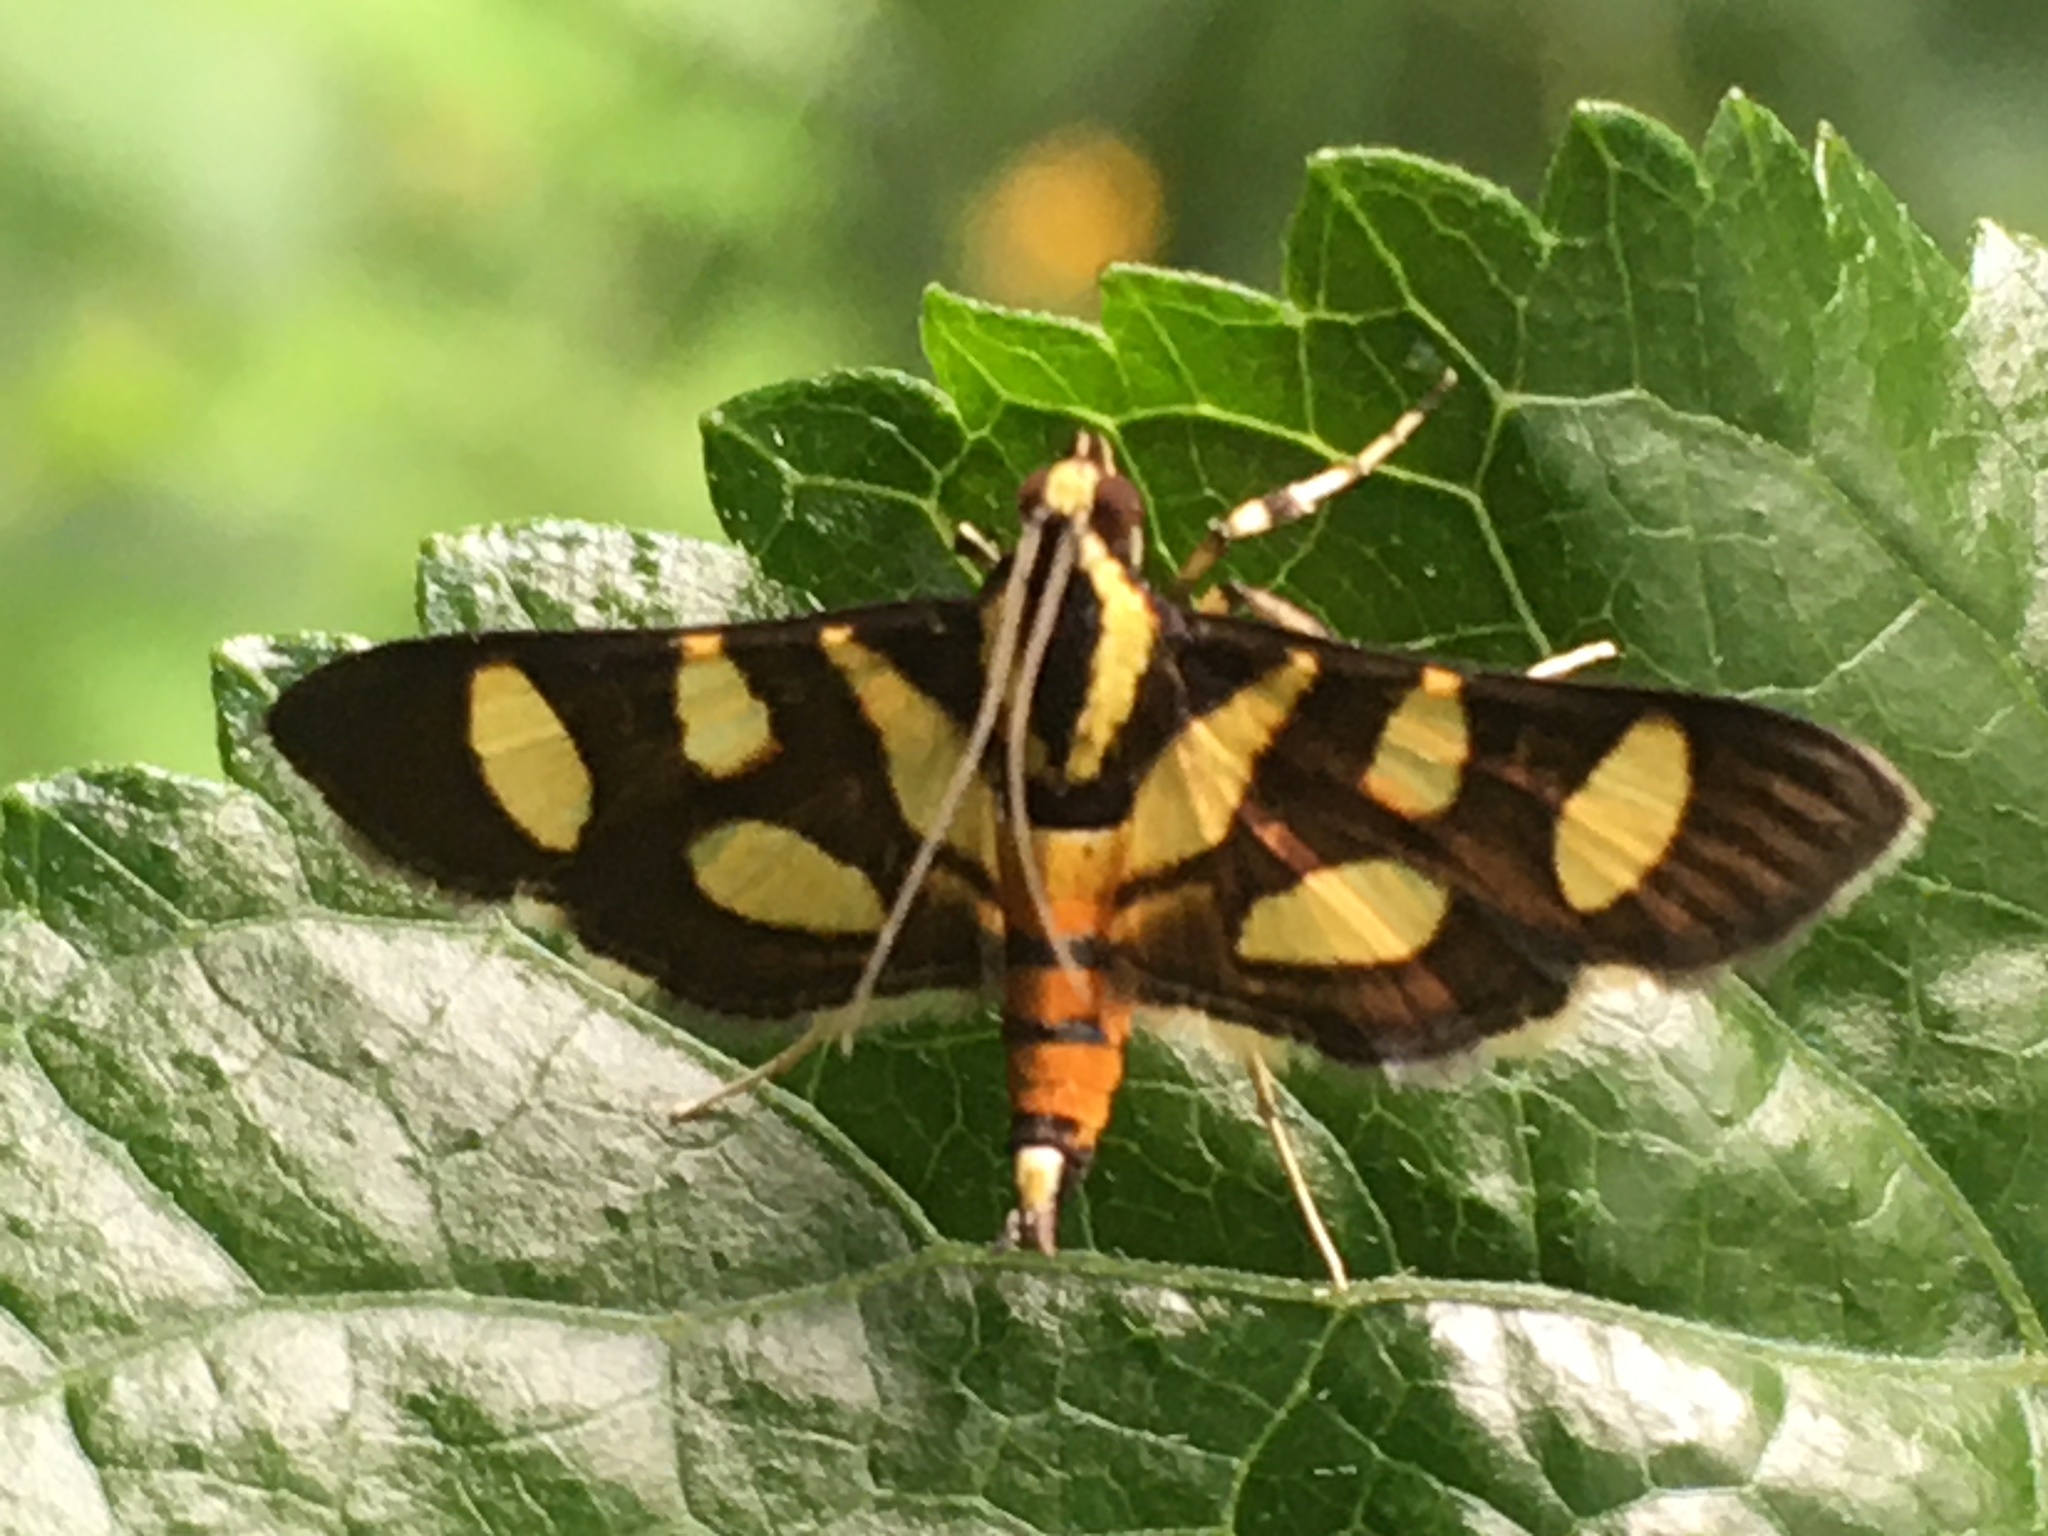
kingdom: Animalia
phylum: Arthropoda
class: Insecta
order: Lepidoptera
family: Crambidae
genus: Syngamia
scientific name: Syngamia florella
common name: Orange-spotted flower moth
